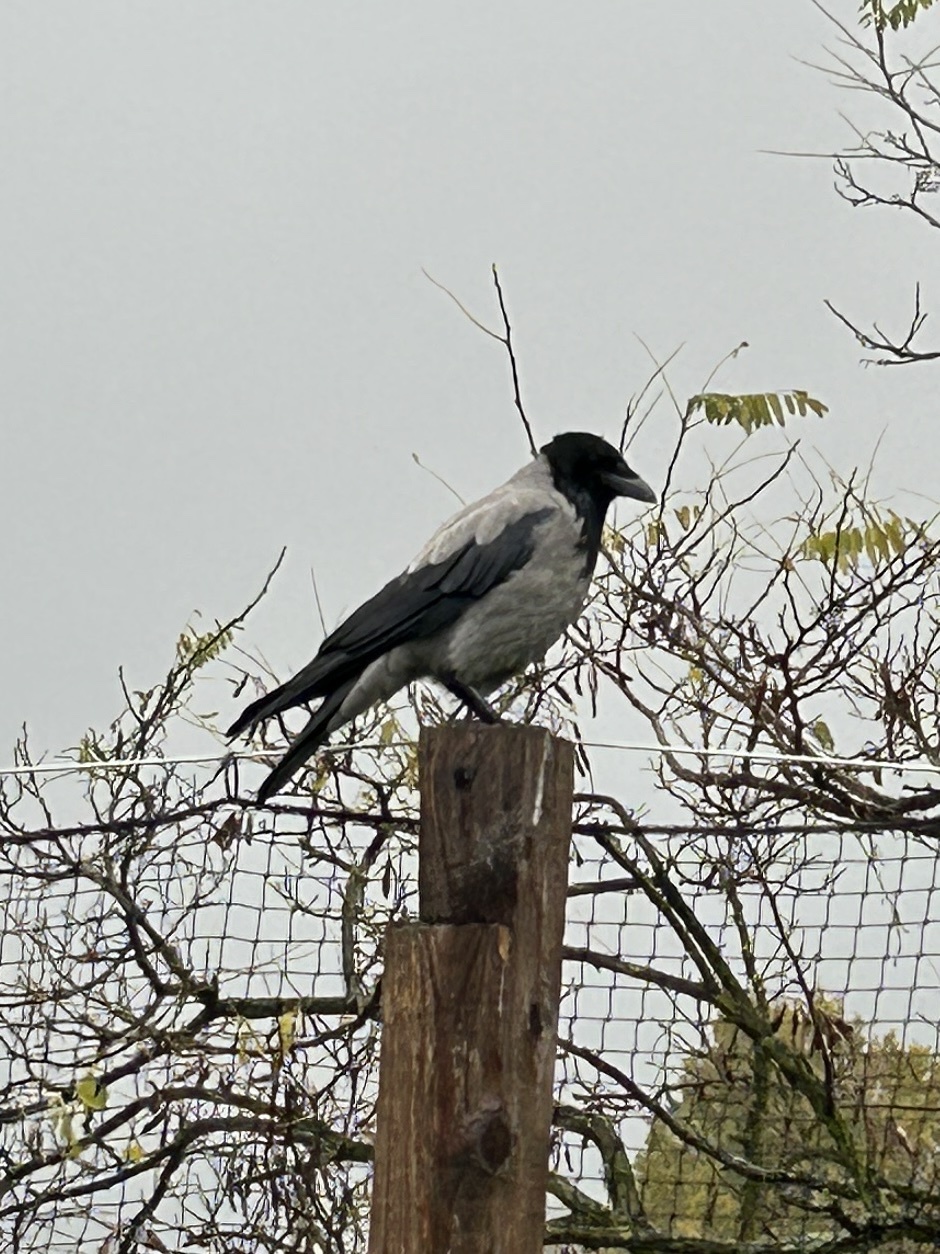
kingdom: Animalia
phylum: Chordata
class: Aves
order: Passeriformes
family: Corvidae
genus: Corvus
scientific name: Corvus cornix
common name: Hooded crow
